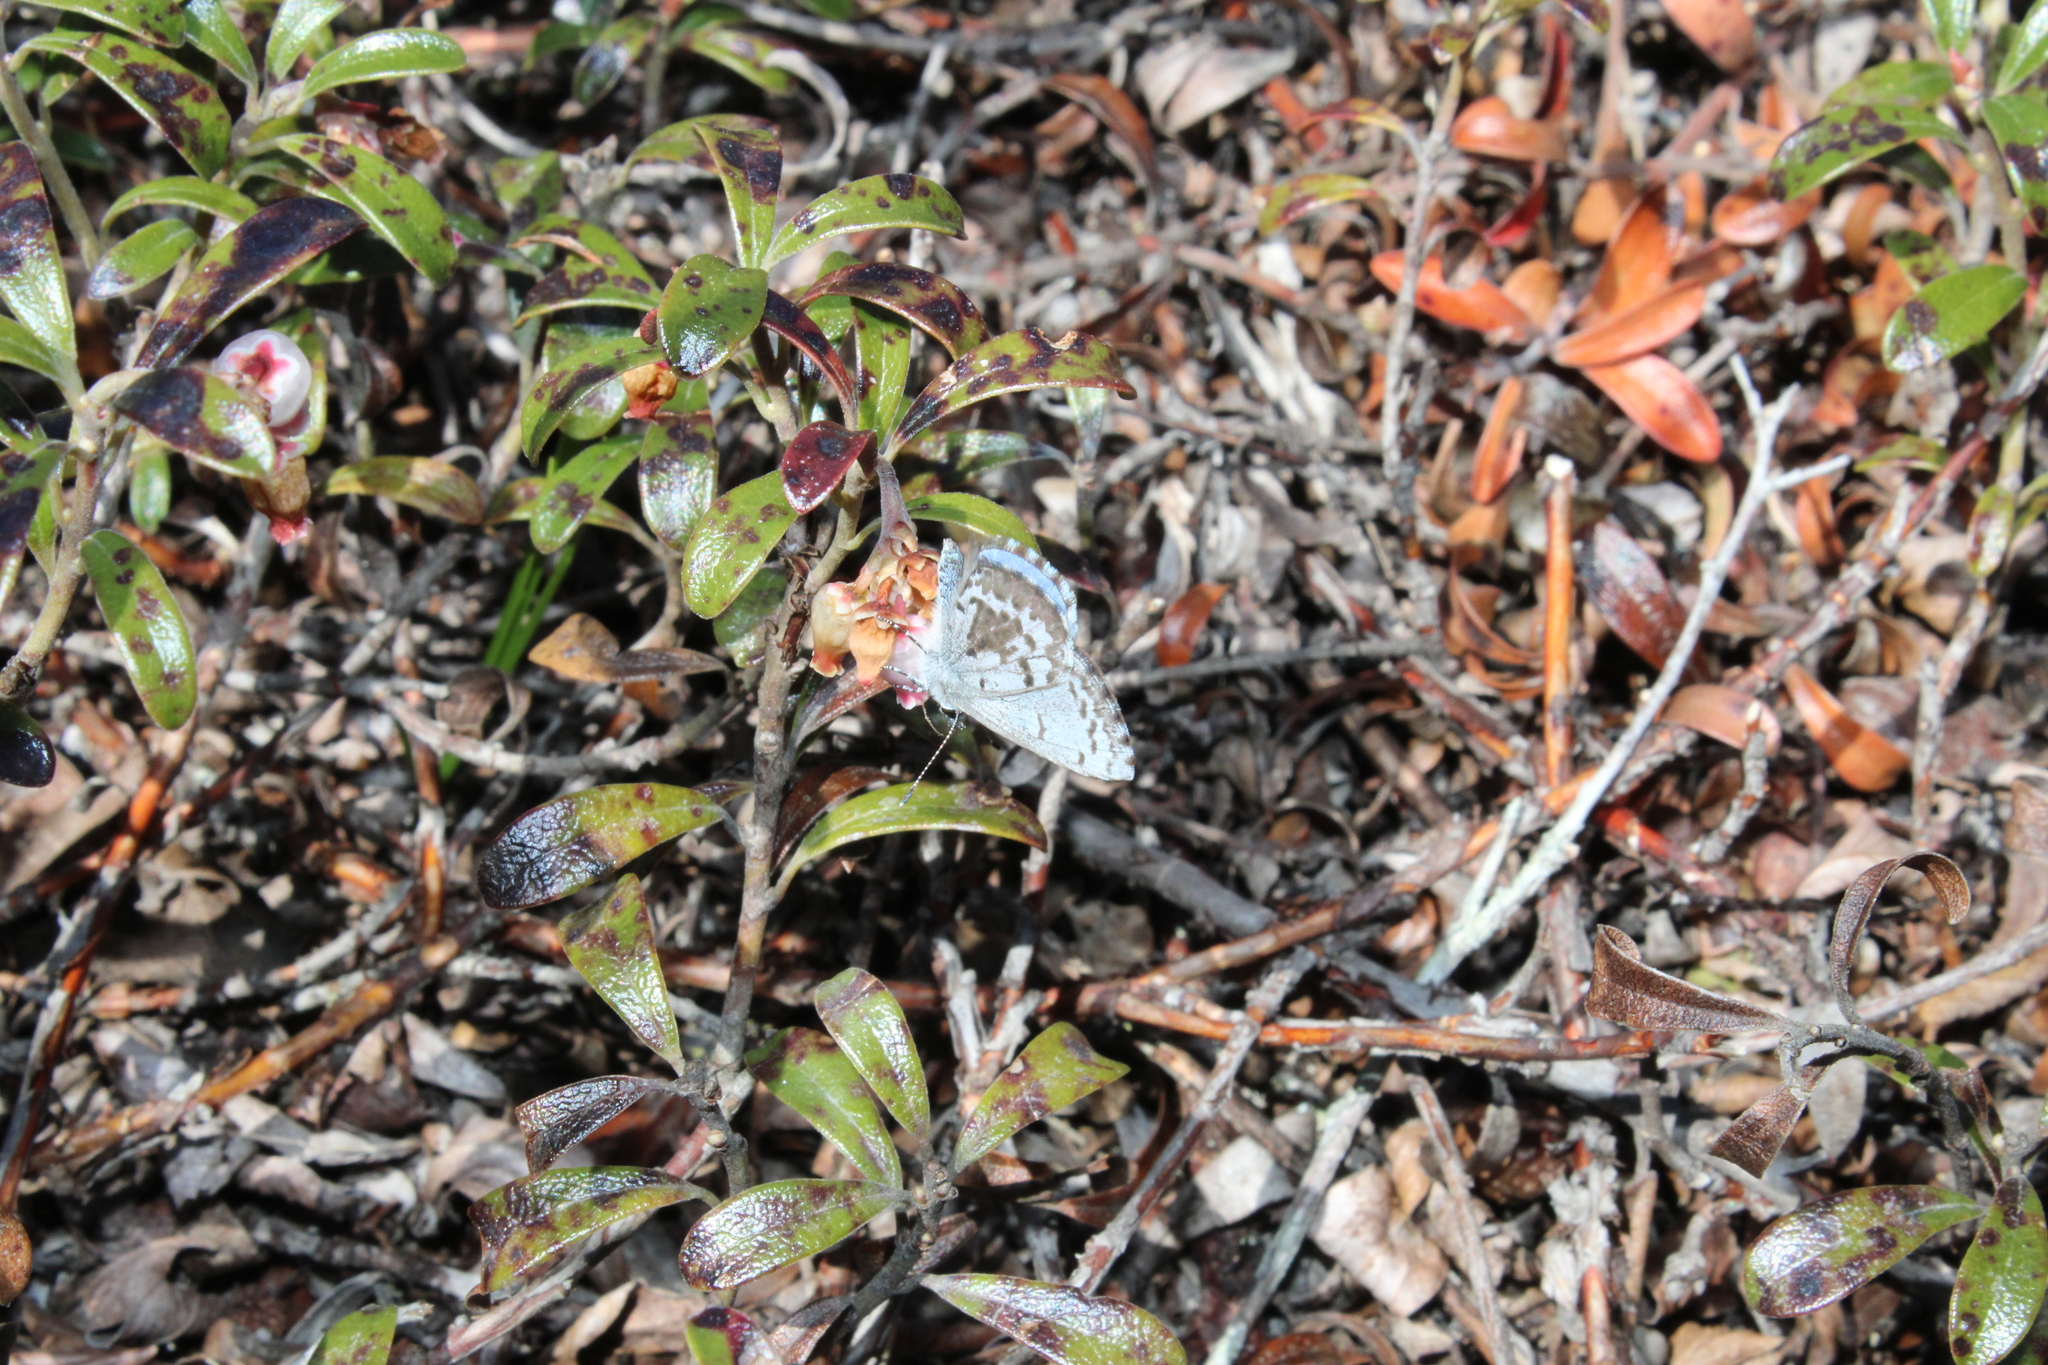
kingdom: Animalia
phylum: Arthropoda
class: Insecta
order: Lepidoptera
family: Lycaenidae
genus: Celastrina
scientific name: Celastrina ladon
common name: Spring azure
